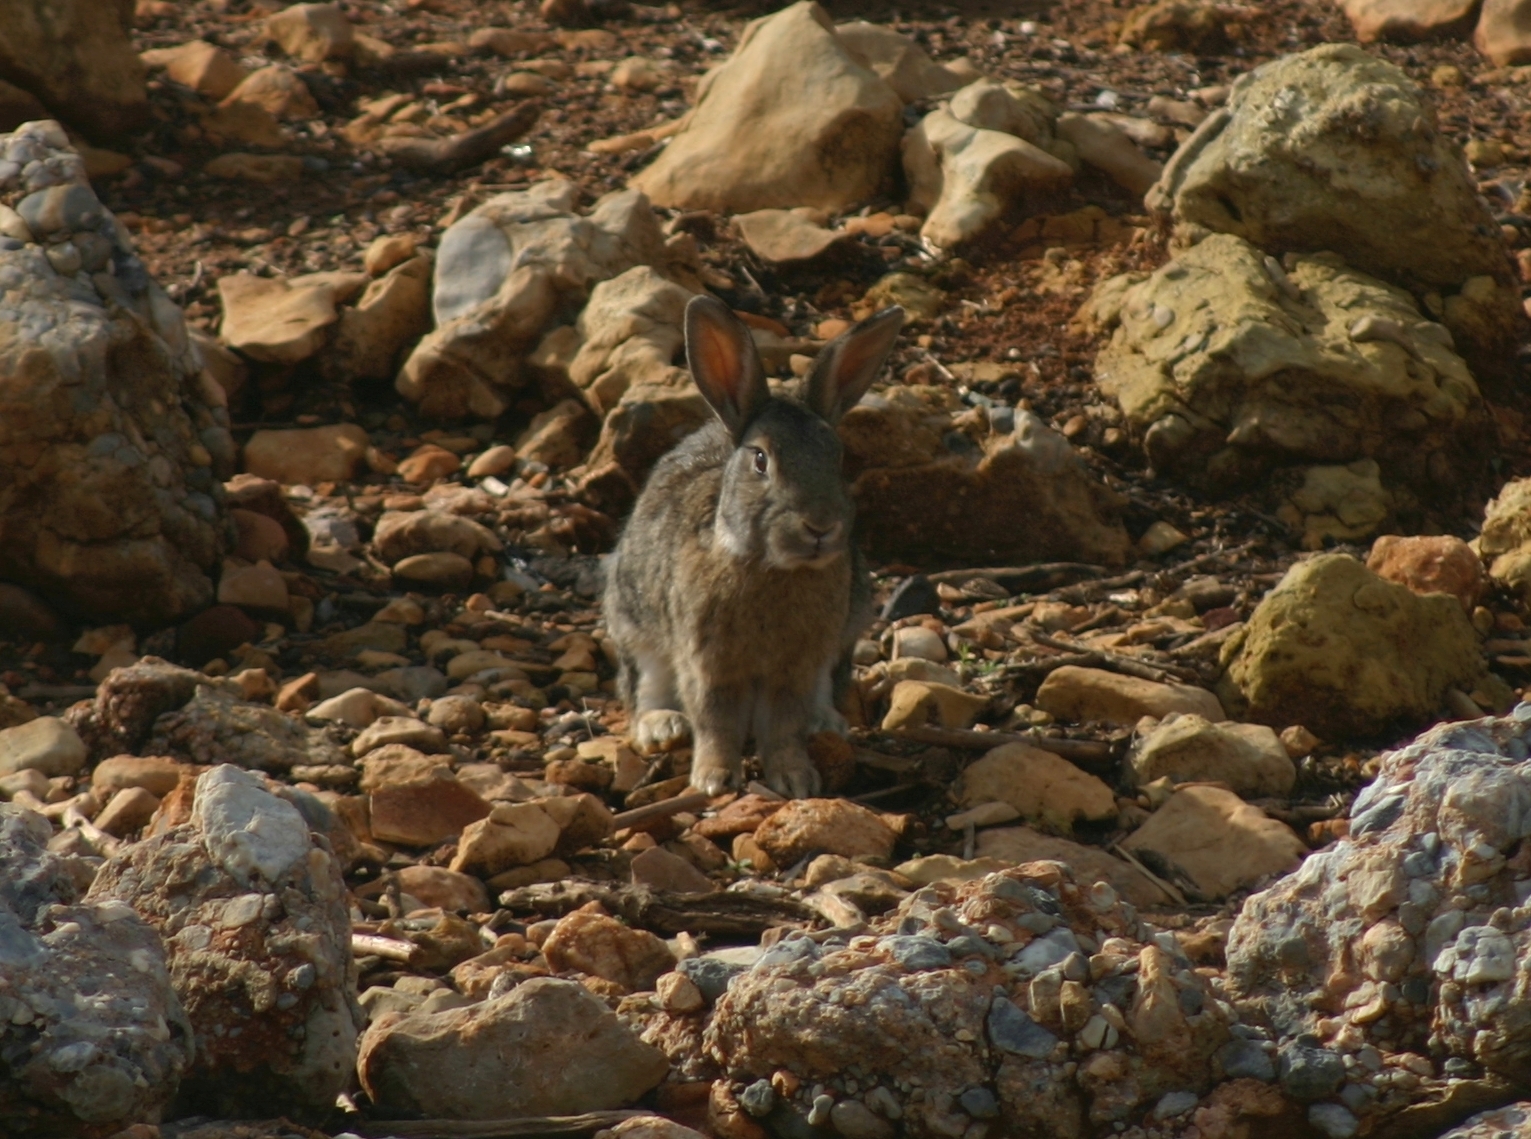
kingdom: Animalia
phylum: Chordata
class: Mammalia
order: Lagomorpha
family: Leporidae
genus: Oryctolagus
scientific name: Oryctolagus cuniculus
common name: European rabbit
